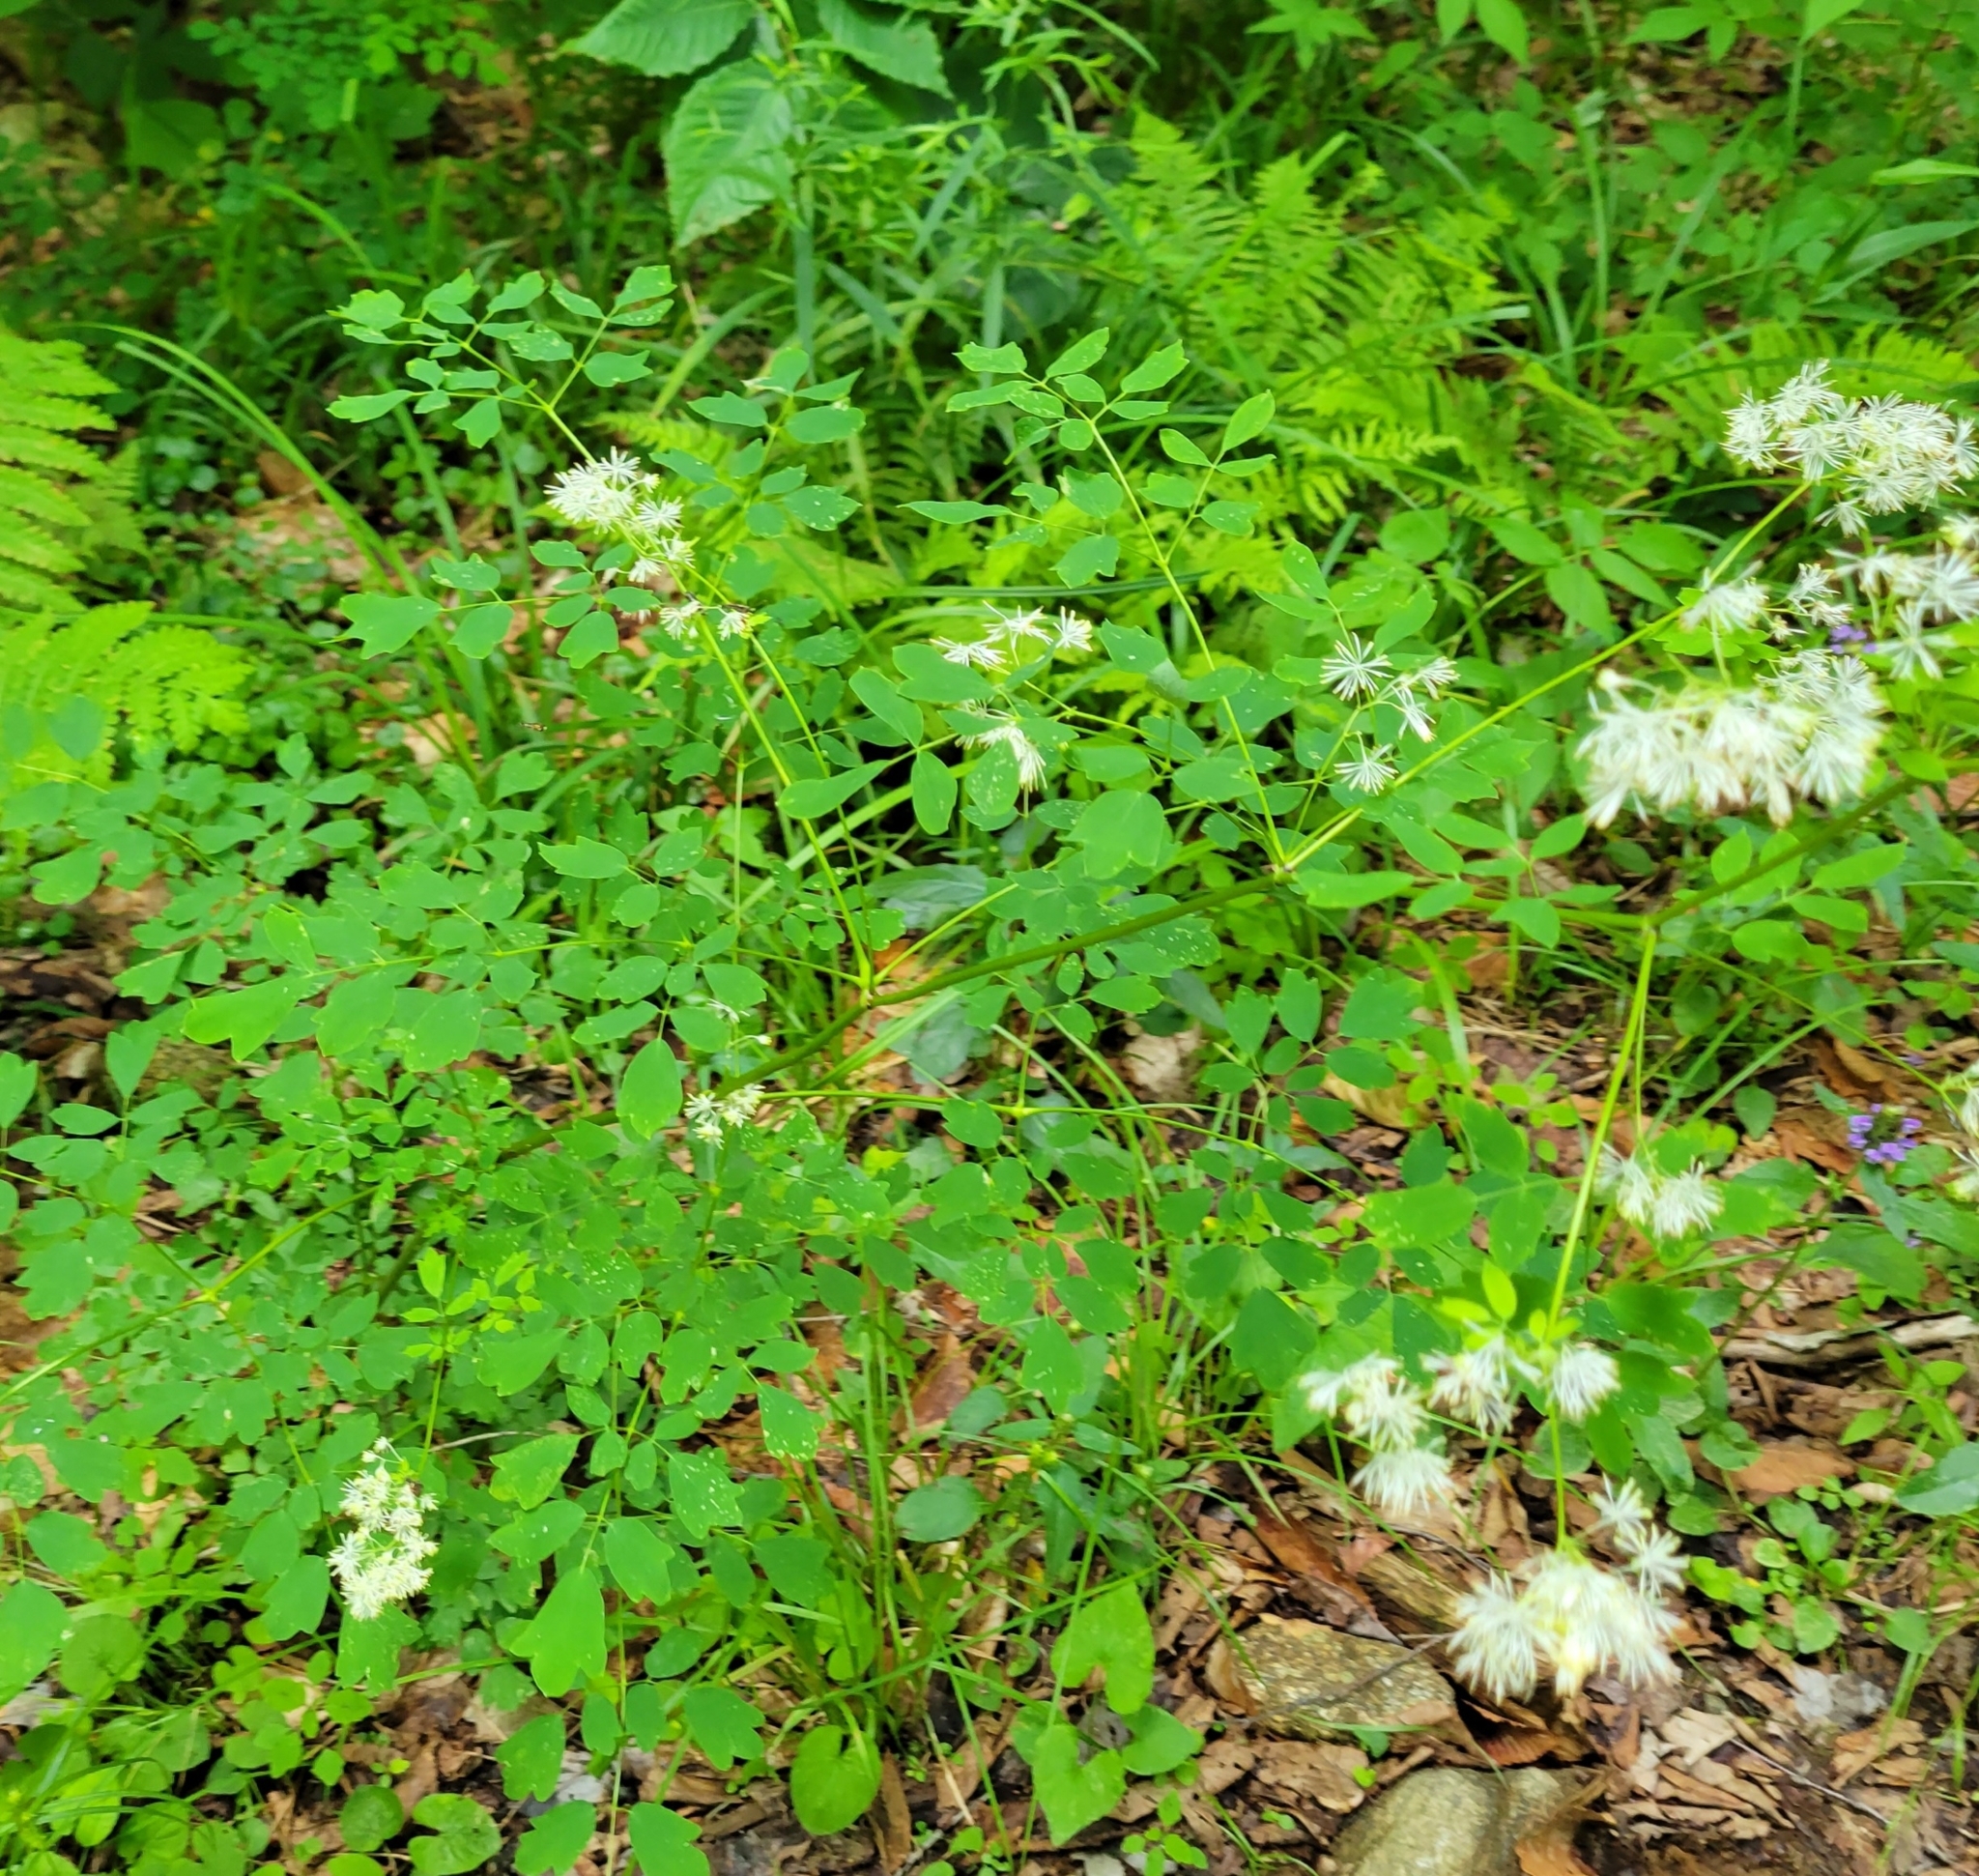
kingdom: Plantae
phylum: Tracheophyta
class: Magnoliopsida
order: Ranunculales
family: Ranunculaceae
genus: Thalictrum
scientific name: Thalictrum pubescens
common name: King-of-the-meadow
